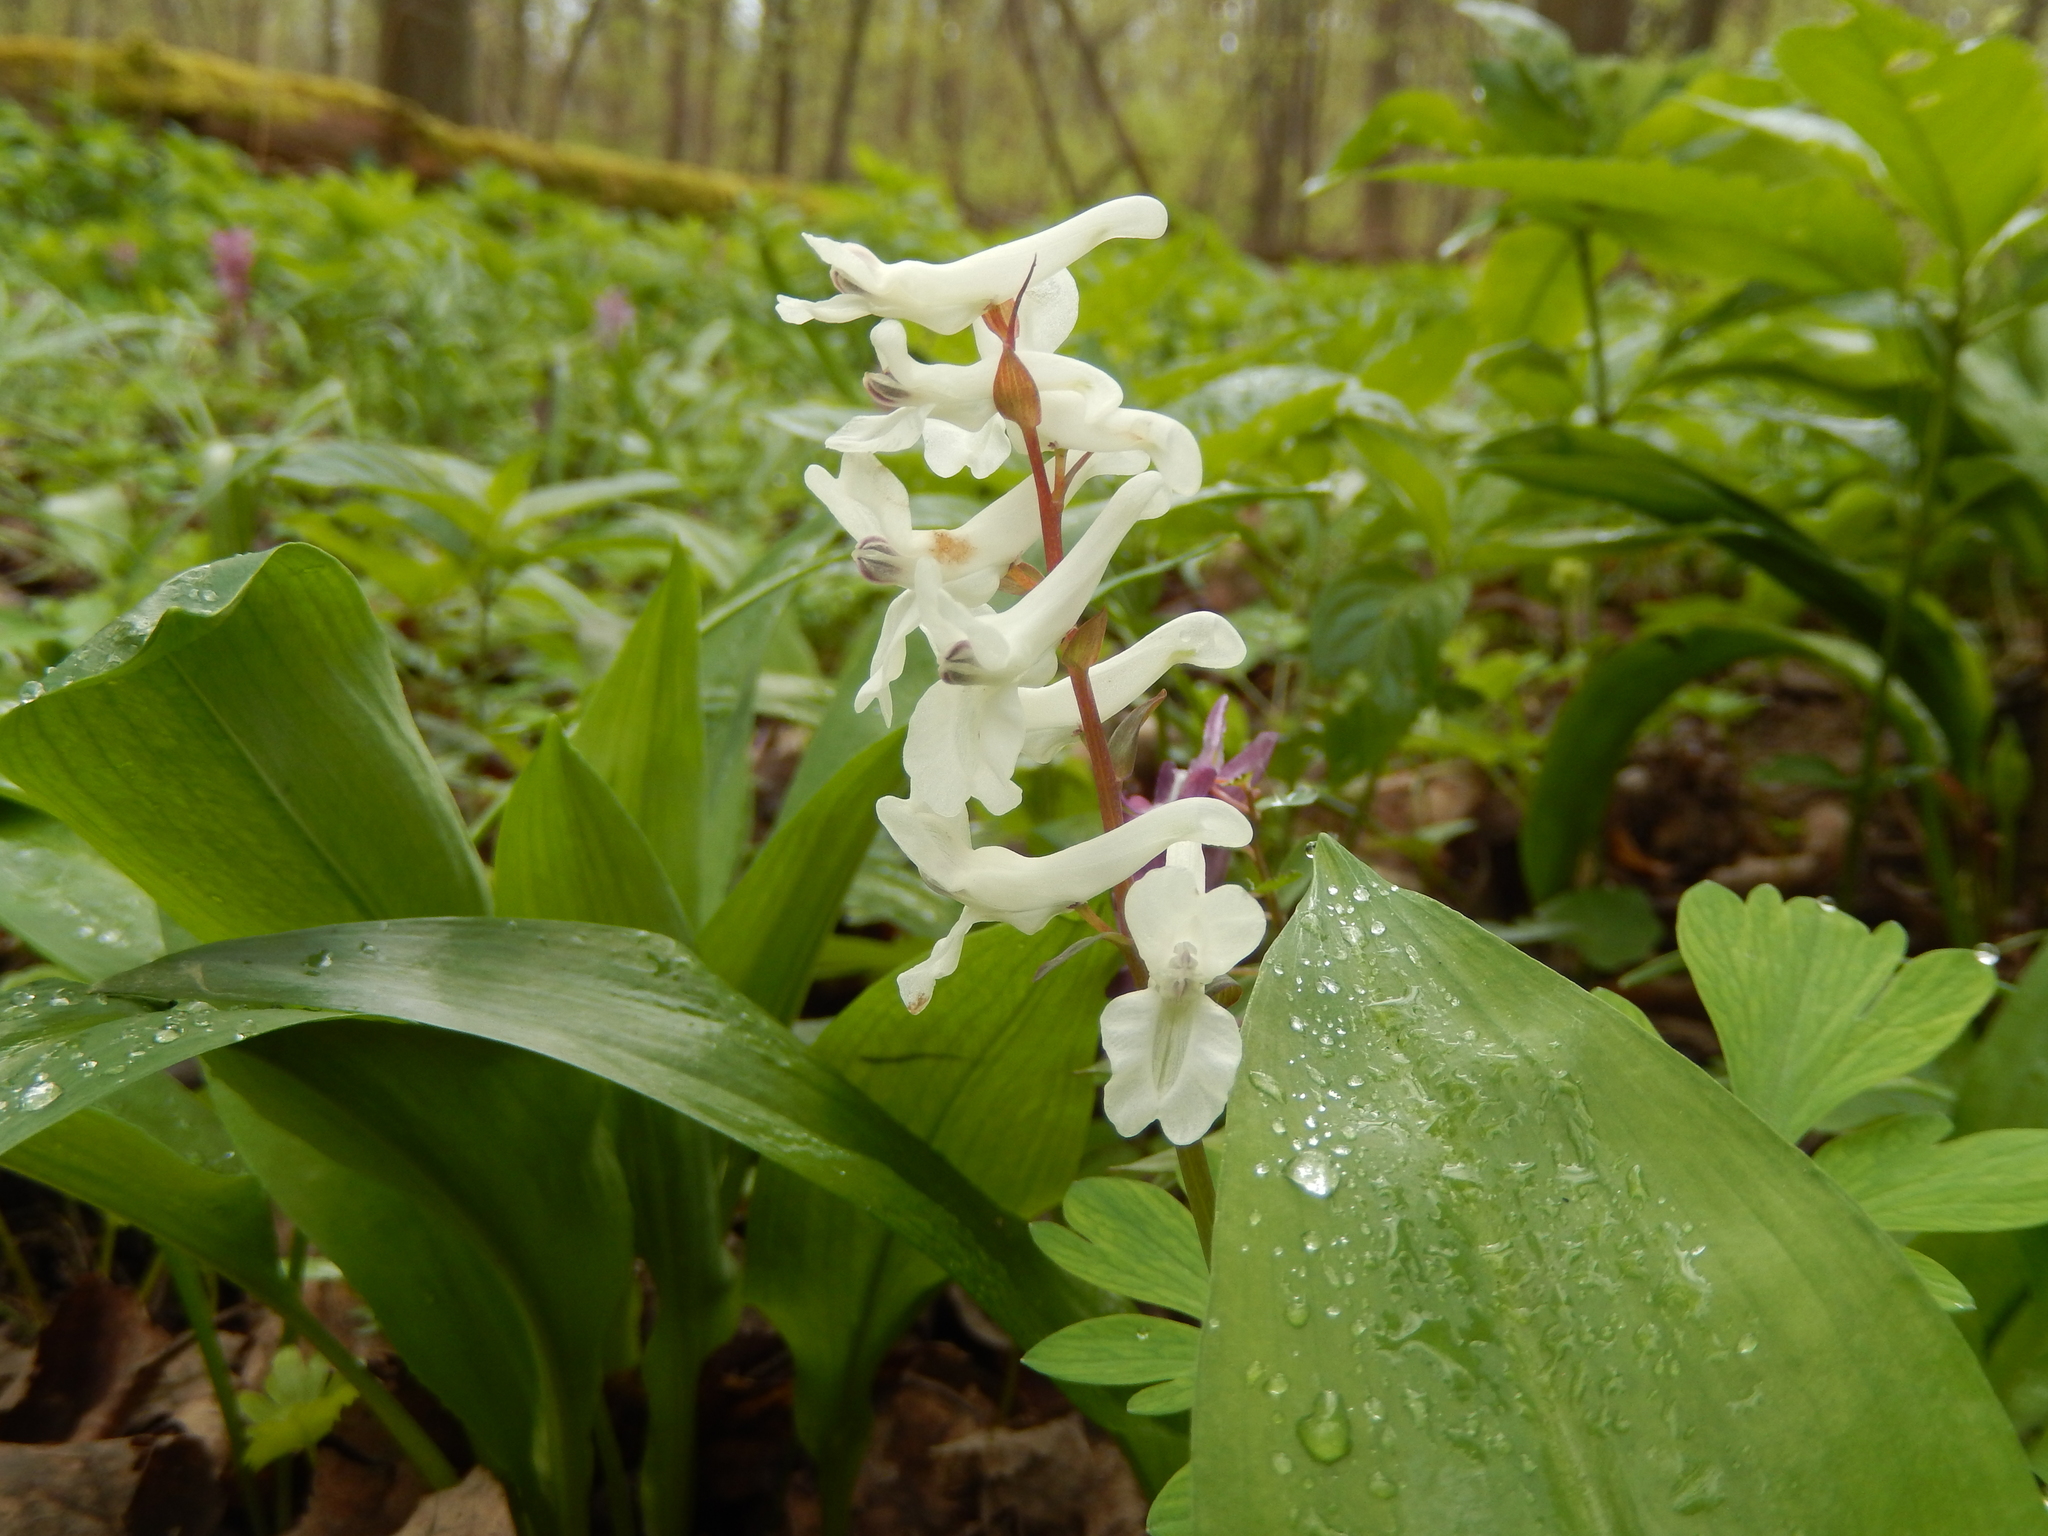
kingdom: Plantae
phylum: Tracheophyta
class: Magnoliopsida
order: Ranunculales
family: Papaveraceae
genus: Corydalis
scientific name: Corydalis cava
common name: Hollowroot
